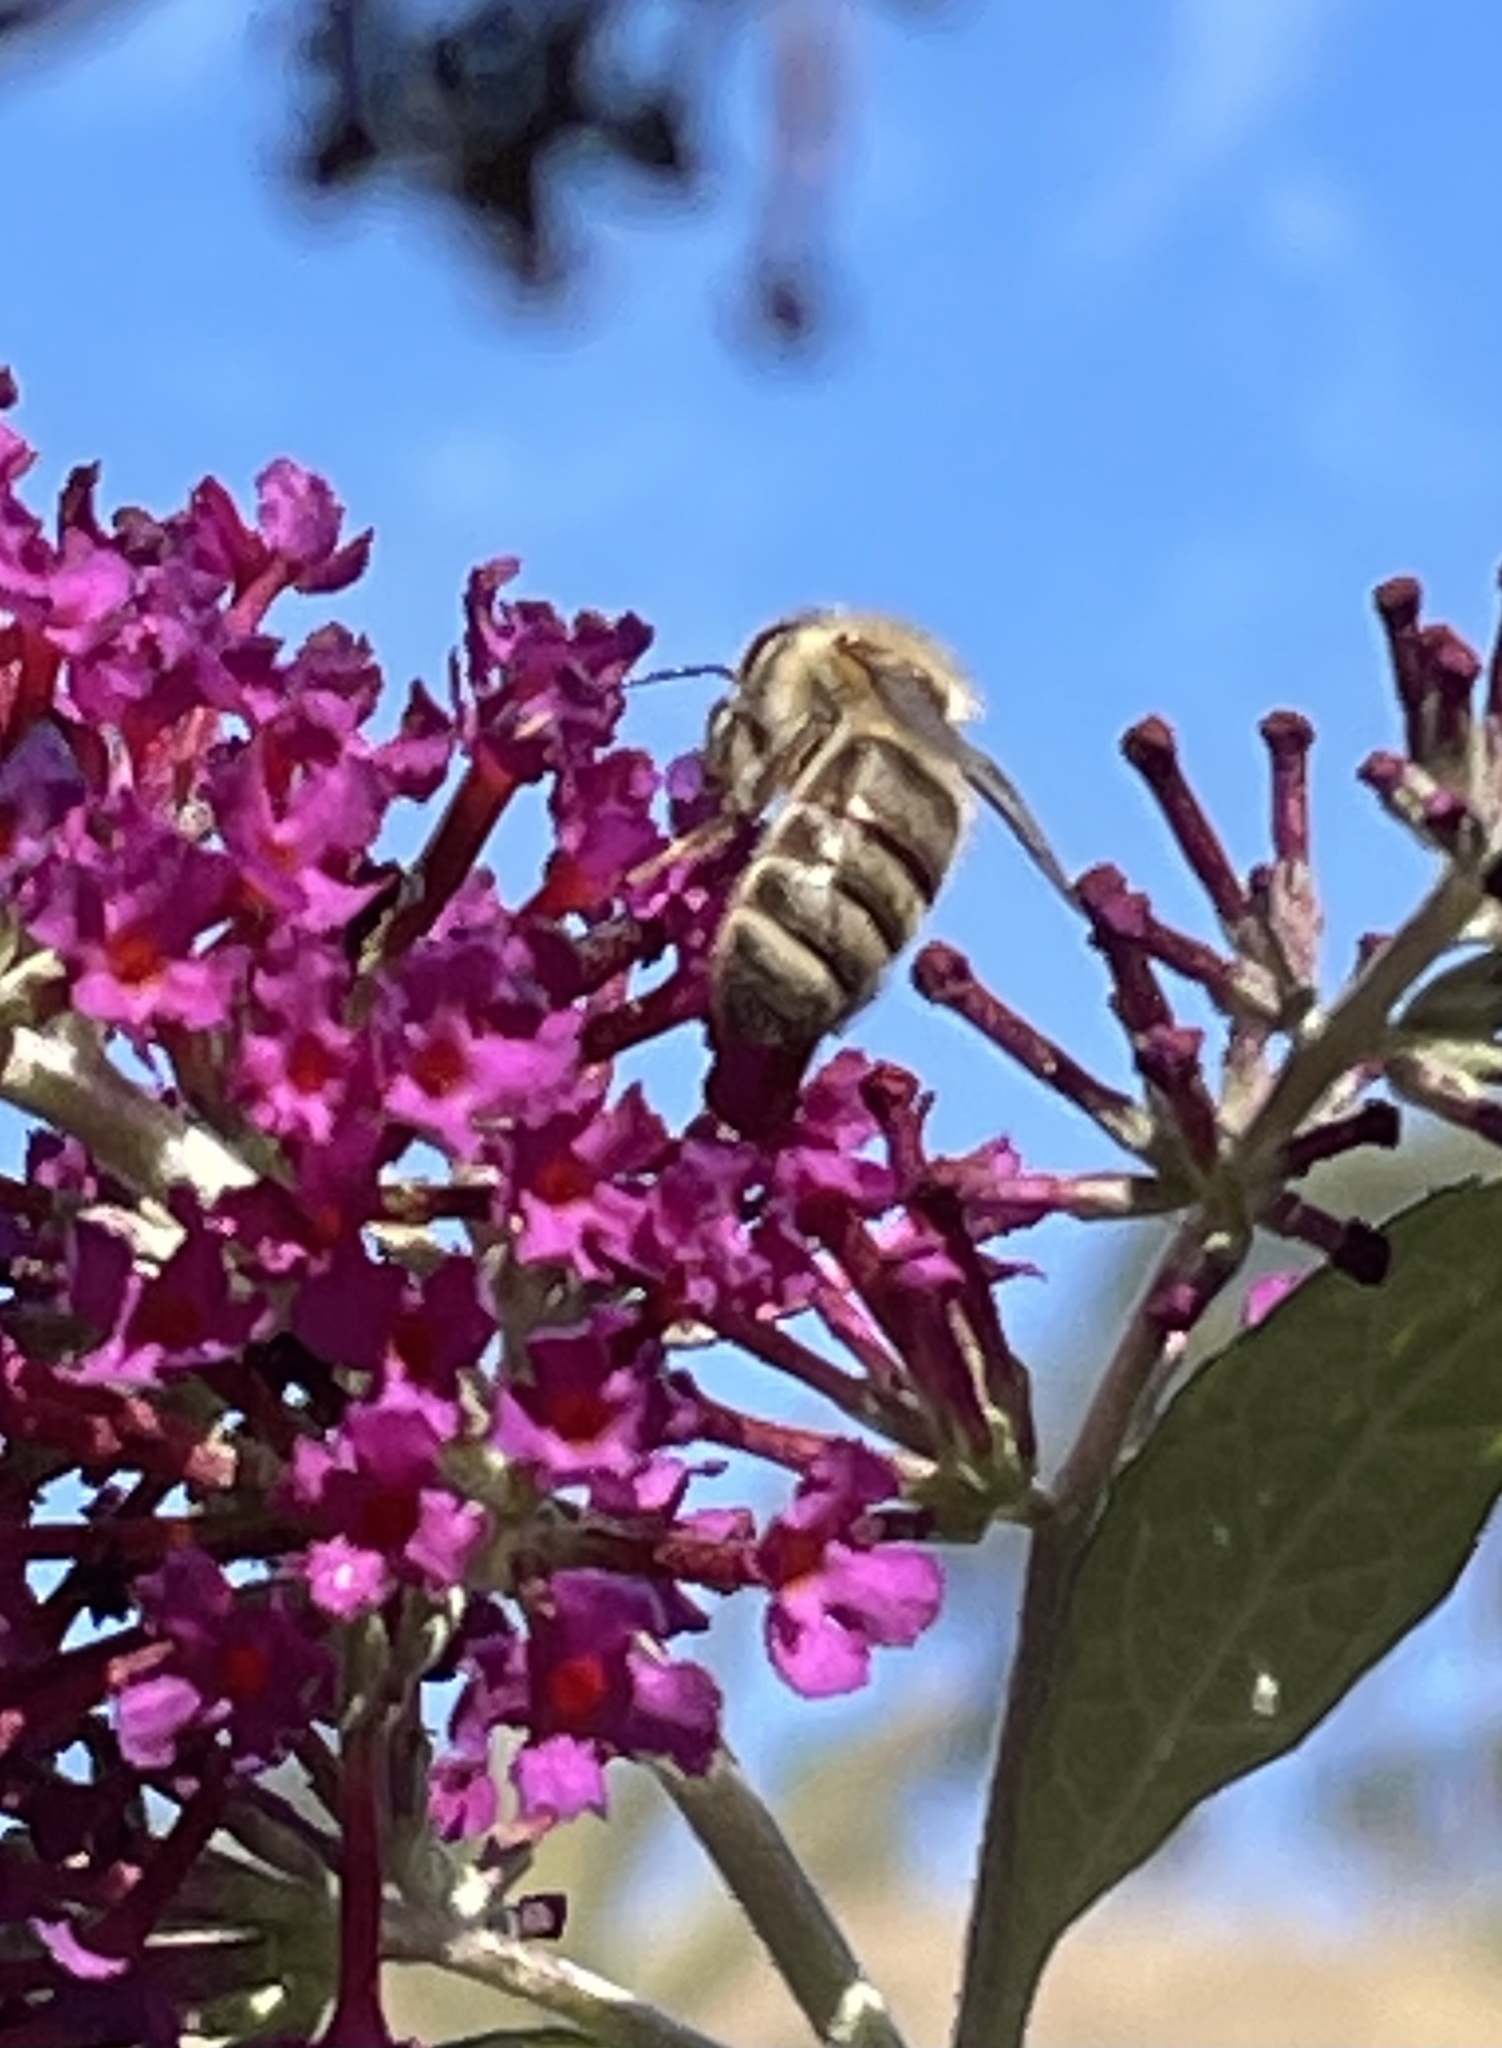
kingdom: Animalia
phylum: Arthropoda
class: Insecta
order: Hymenoptera
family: Apidae
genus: Apis
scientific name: Apis mellifera
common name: Honey bee
